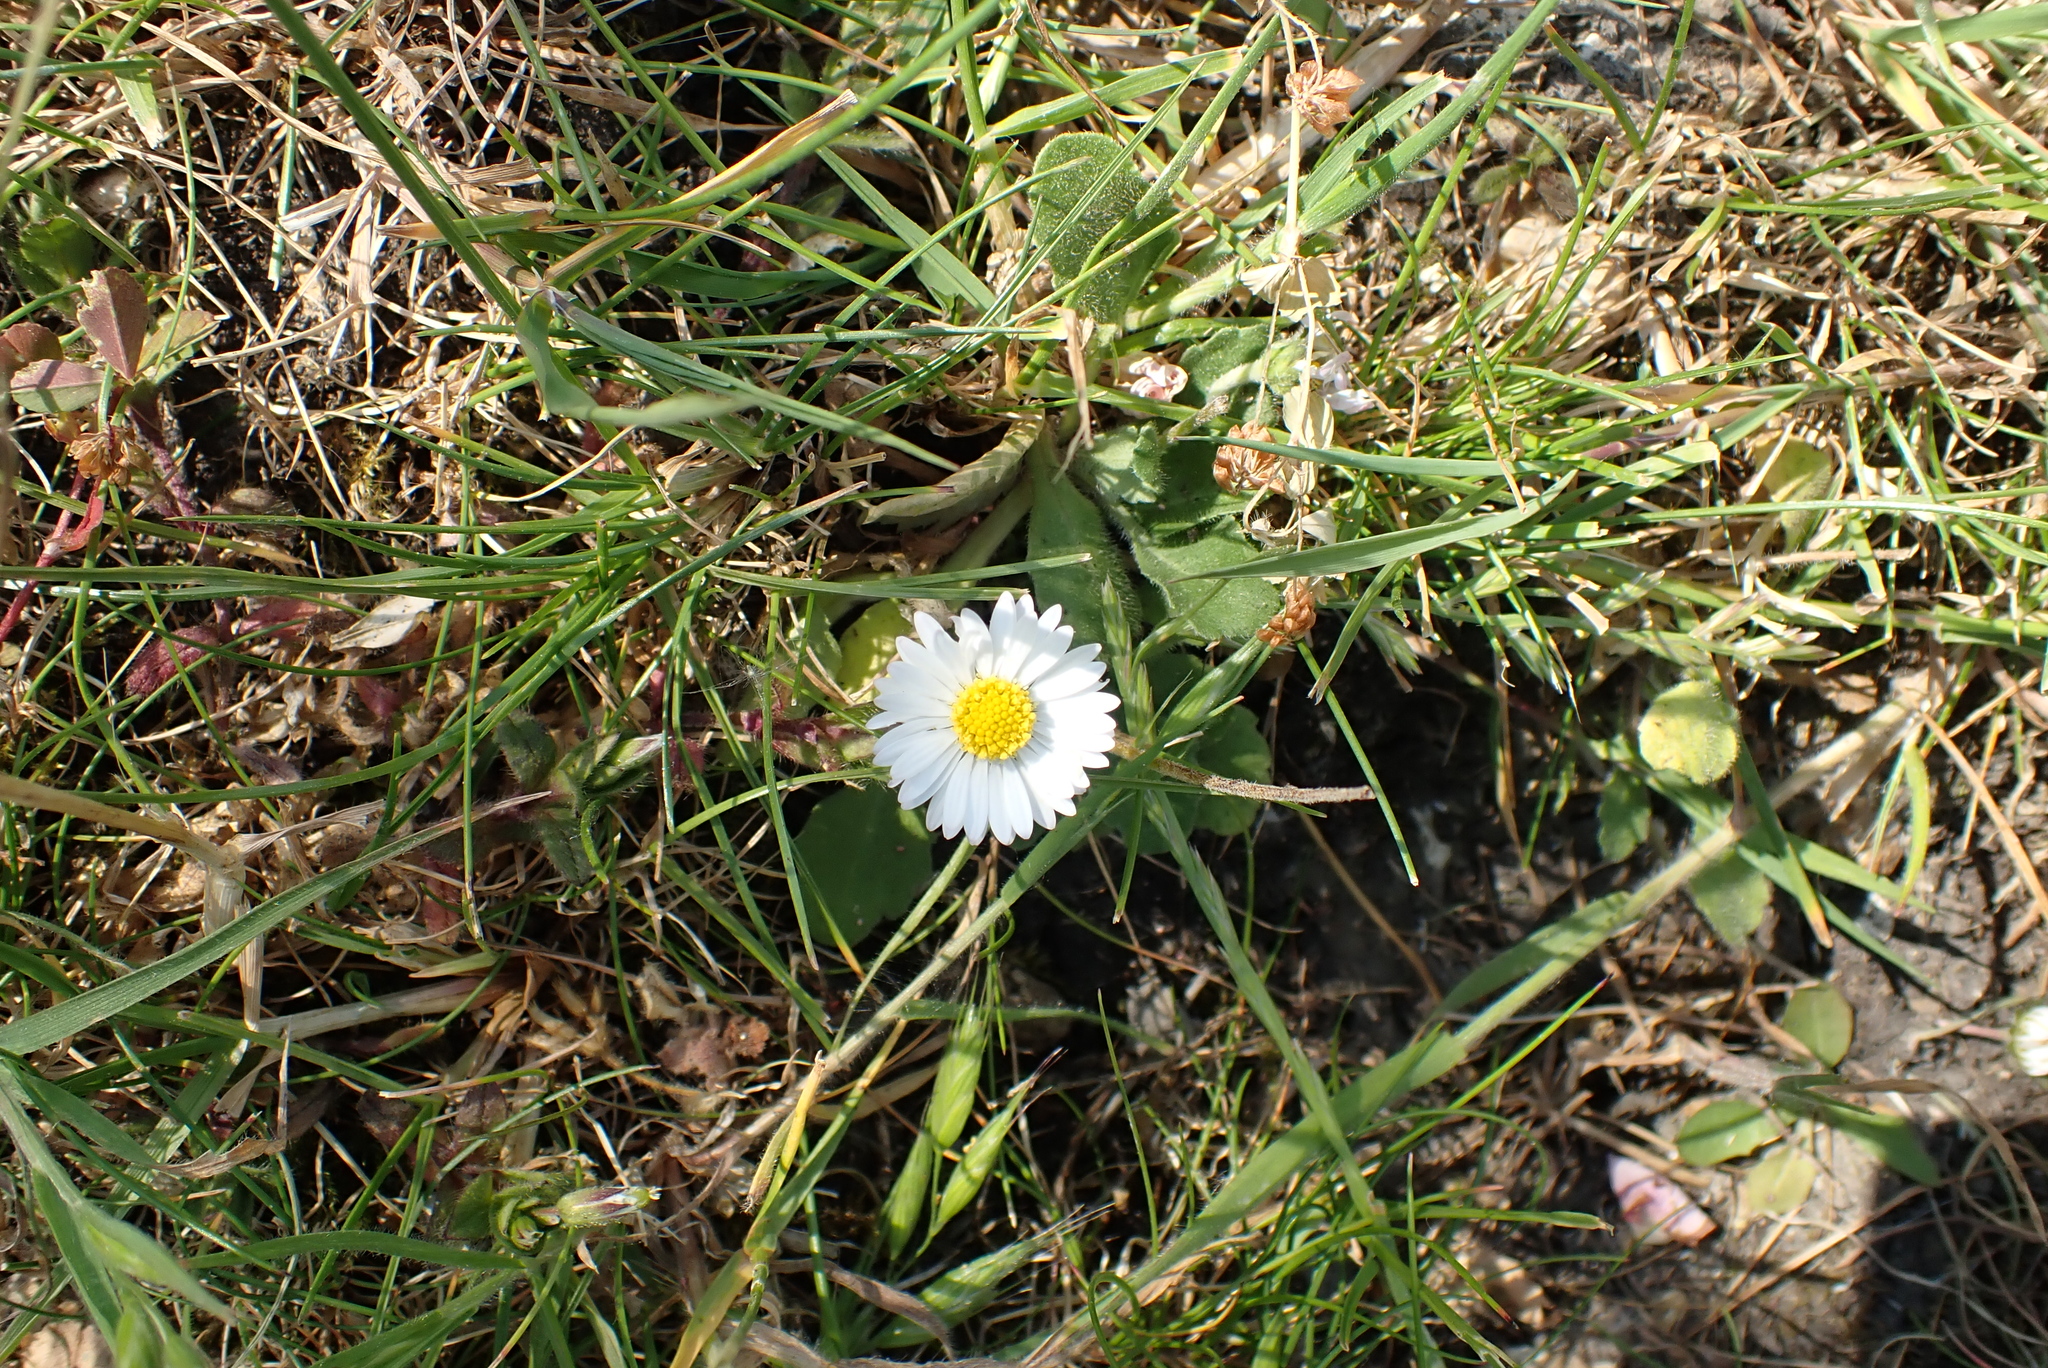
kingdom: Plantae
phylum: Tracheophyta
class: Magnoliopsida
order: Asterales
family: Asteraceae
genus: Bellis
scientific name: Bellis perennis
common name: Lawndaisy
